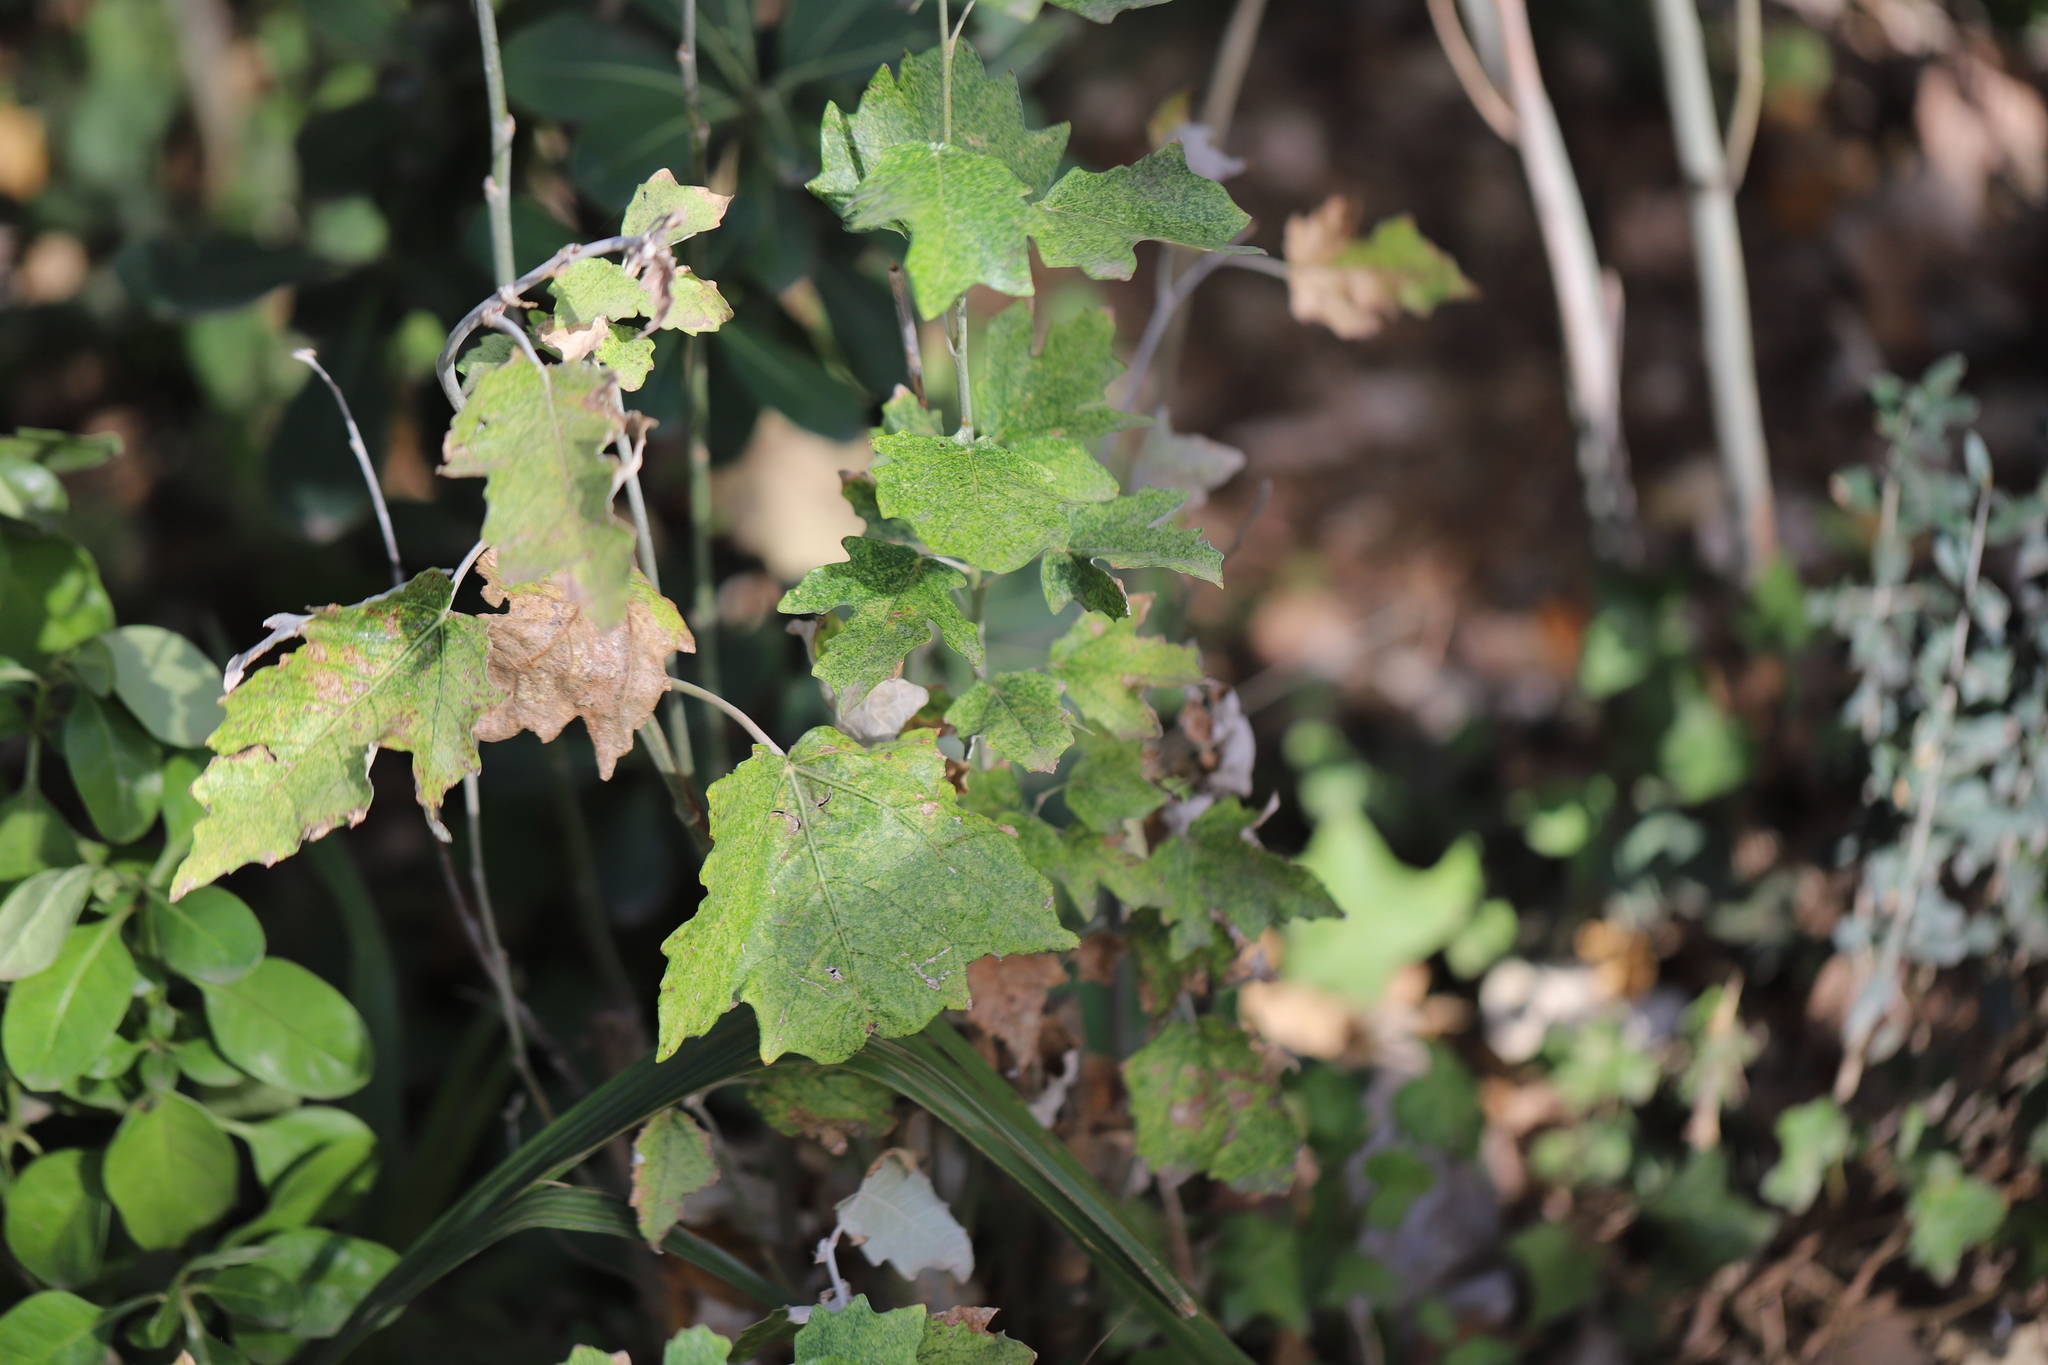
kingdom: Plantae
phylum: Tracheophyta
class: Magnoliopsida
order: Malpighiales
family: Salicaceae
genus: Populus
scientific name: Populus alba
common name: White poplar
